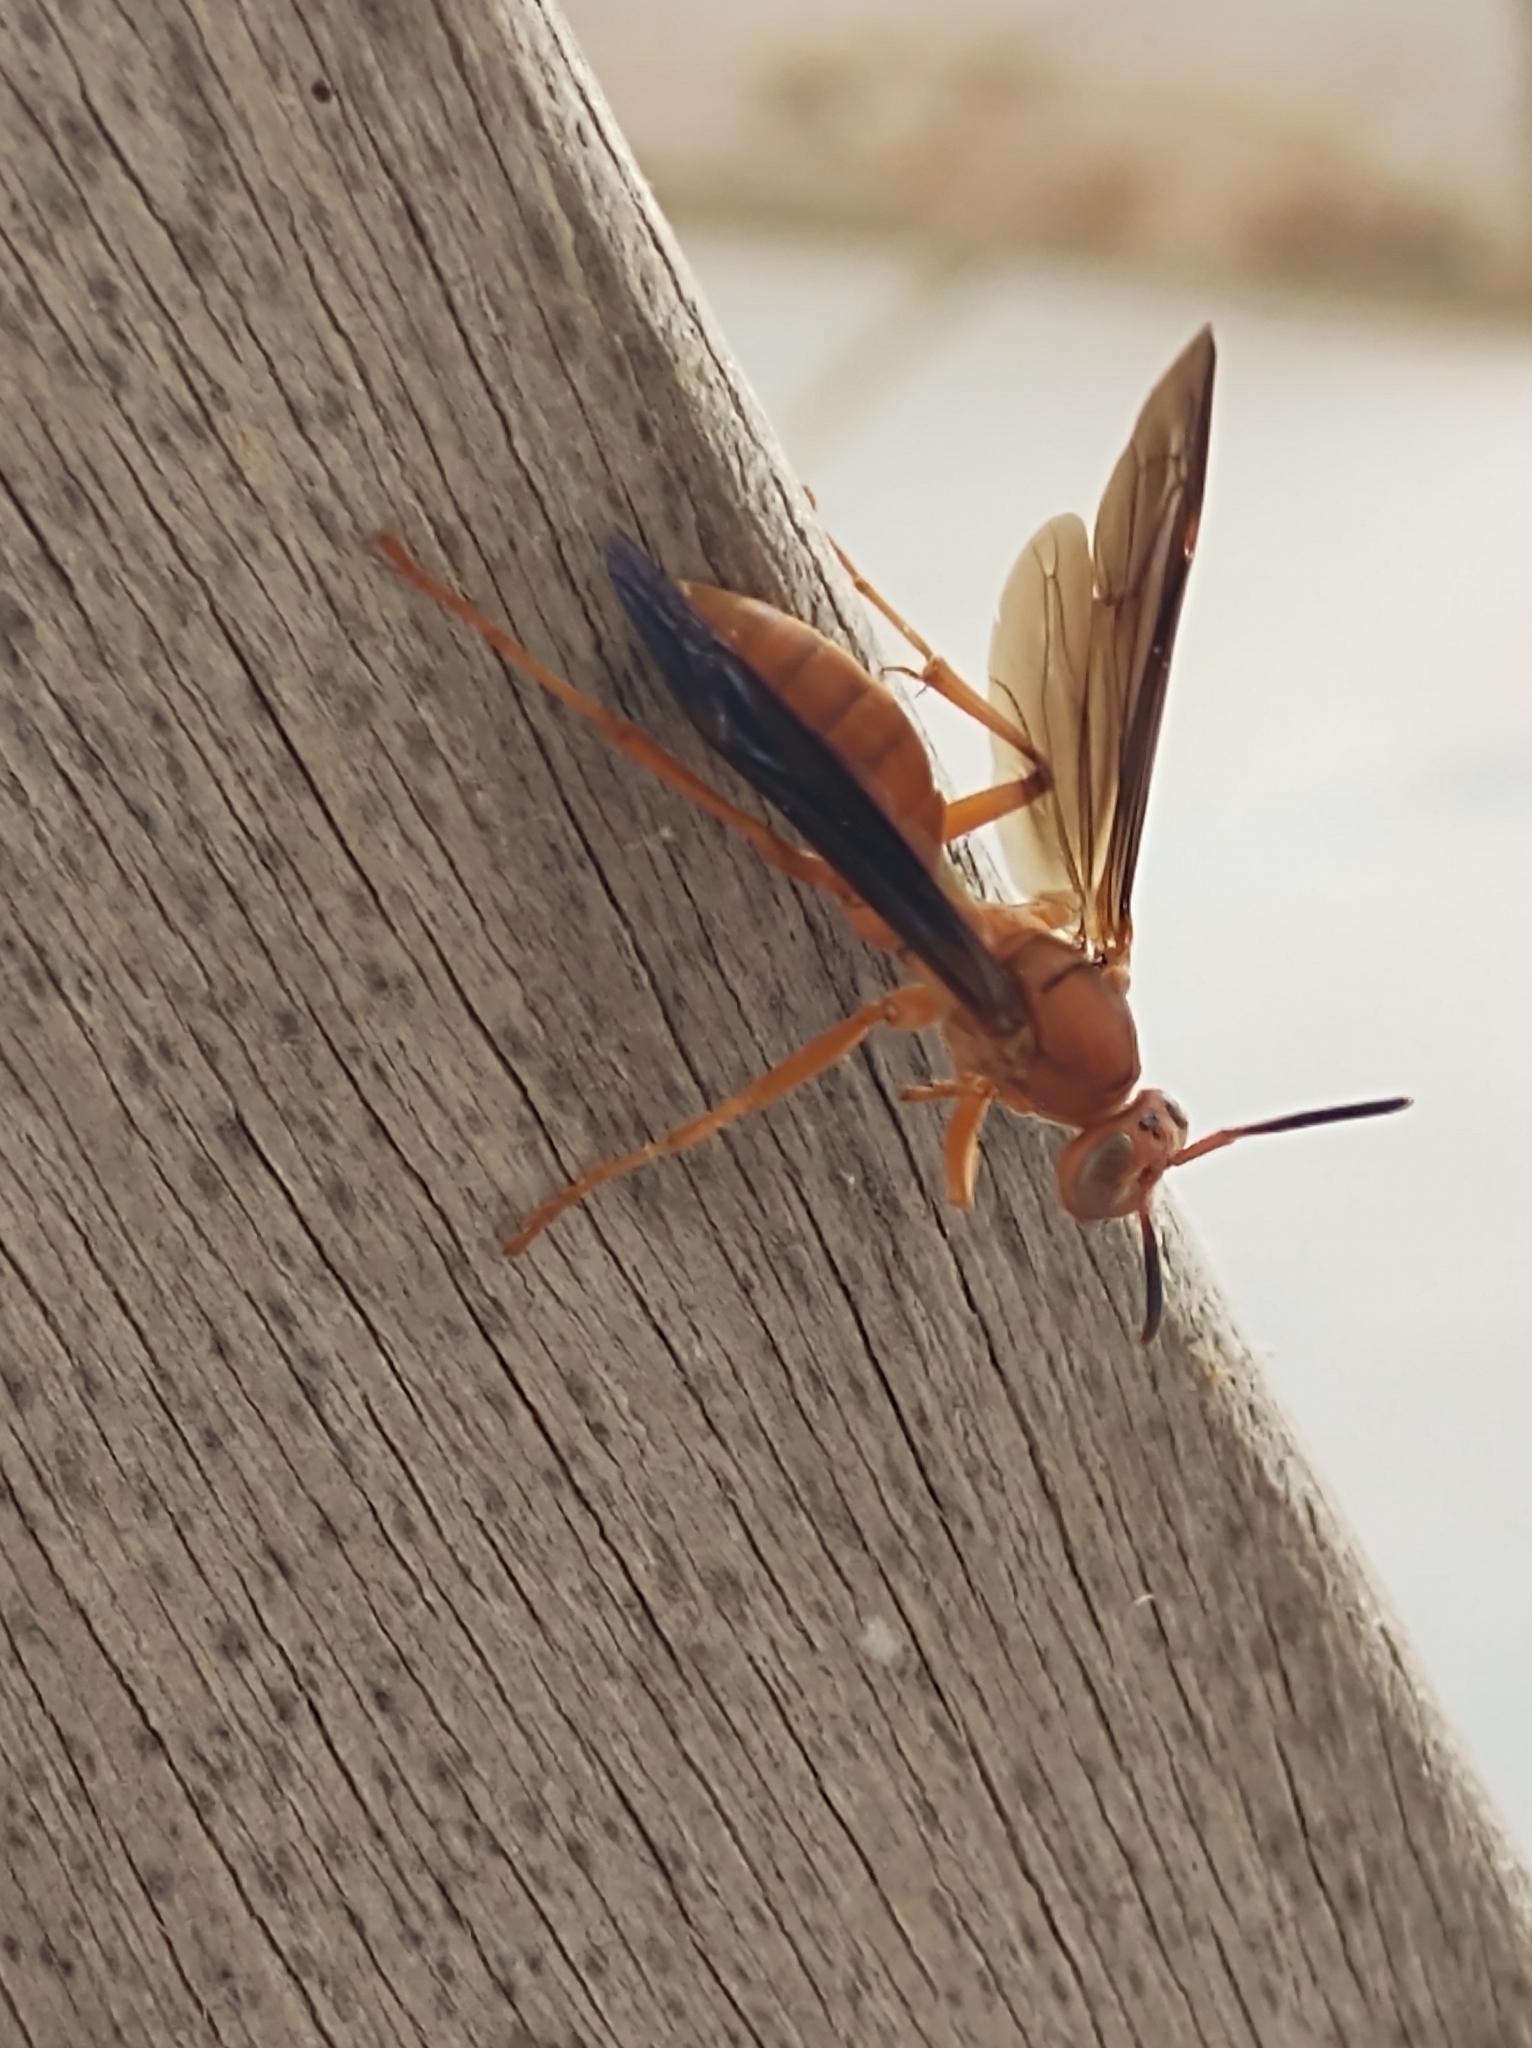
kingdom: Animalia
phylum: Arthropoda
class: Insecta
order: Hymenoptera
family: Eumenidae
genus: Polistes
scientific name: Polistes carolina
